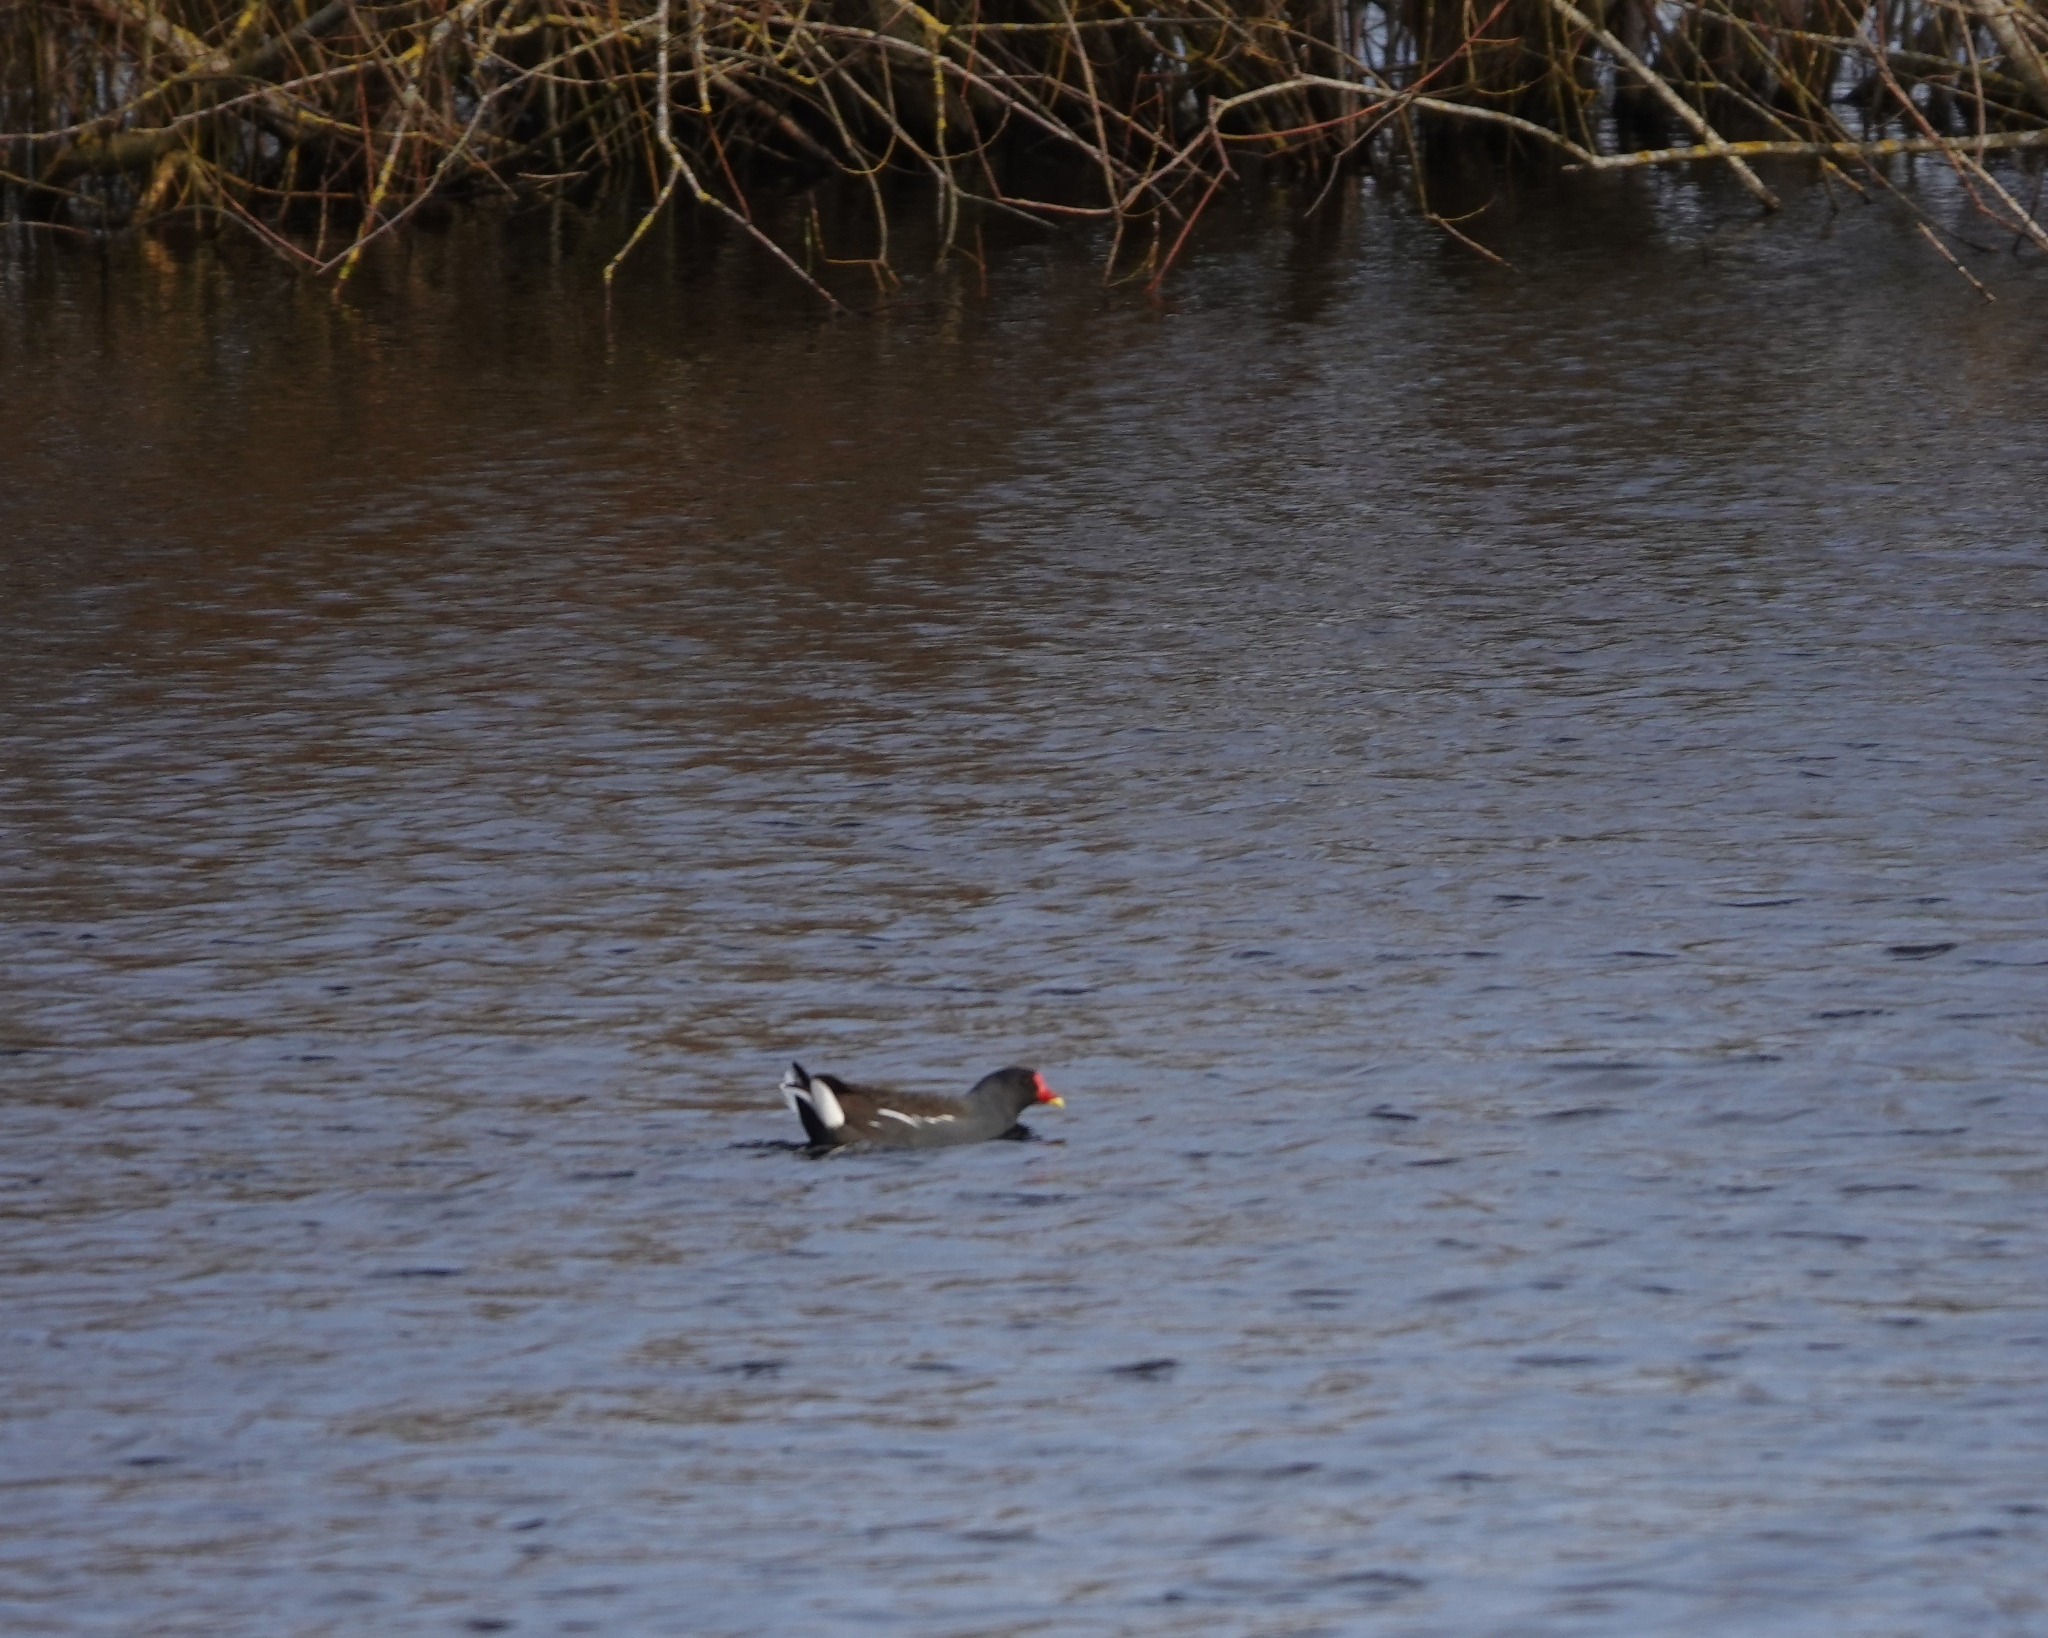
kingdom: Animalia
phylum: Chordata
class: Aves
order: Gruiformes
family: Rallidae
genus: Gallinula
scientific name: Gallinula chloropus
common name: Common moorhen
